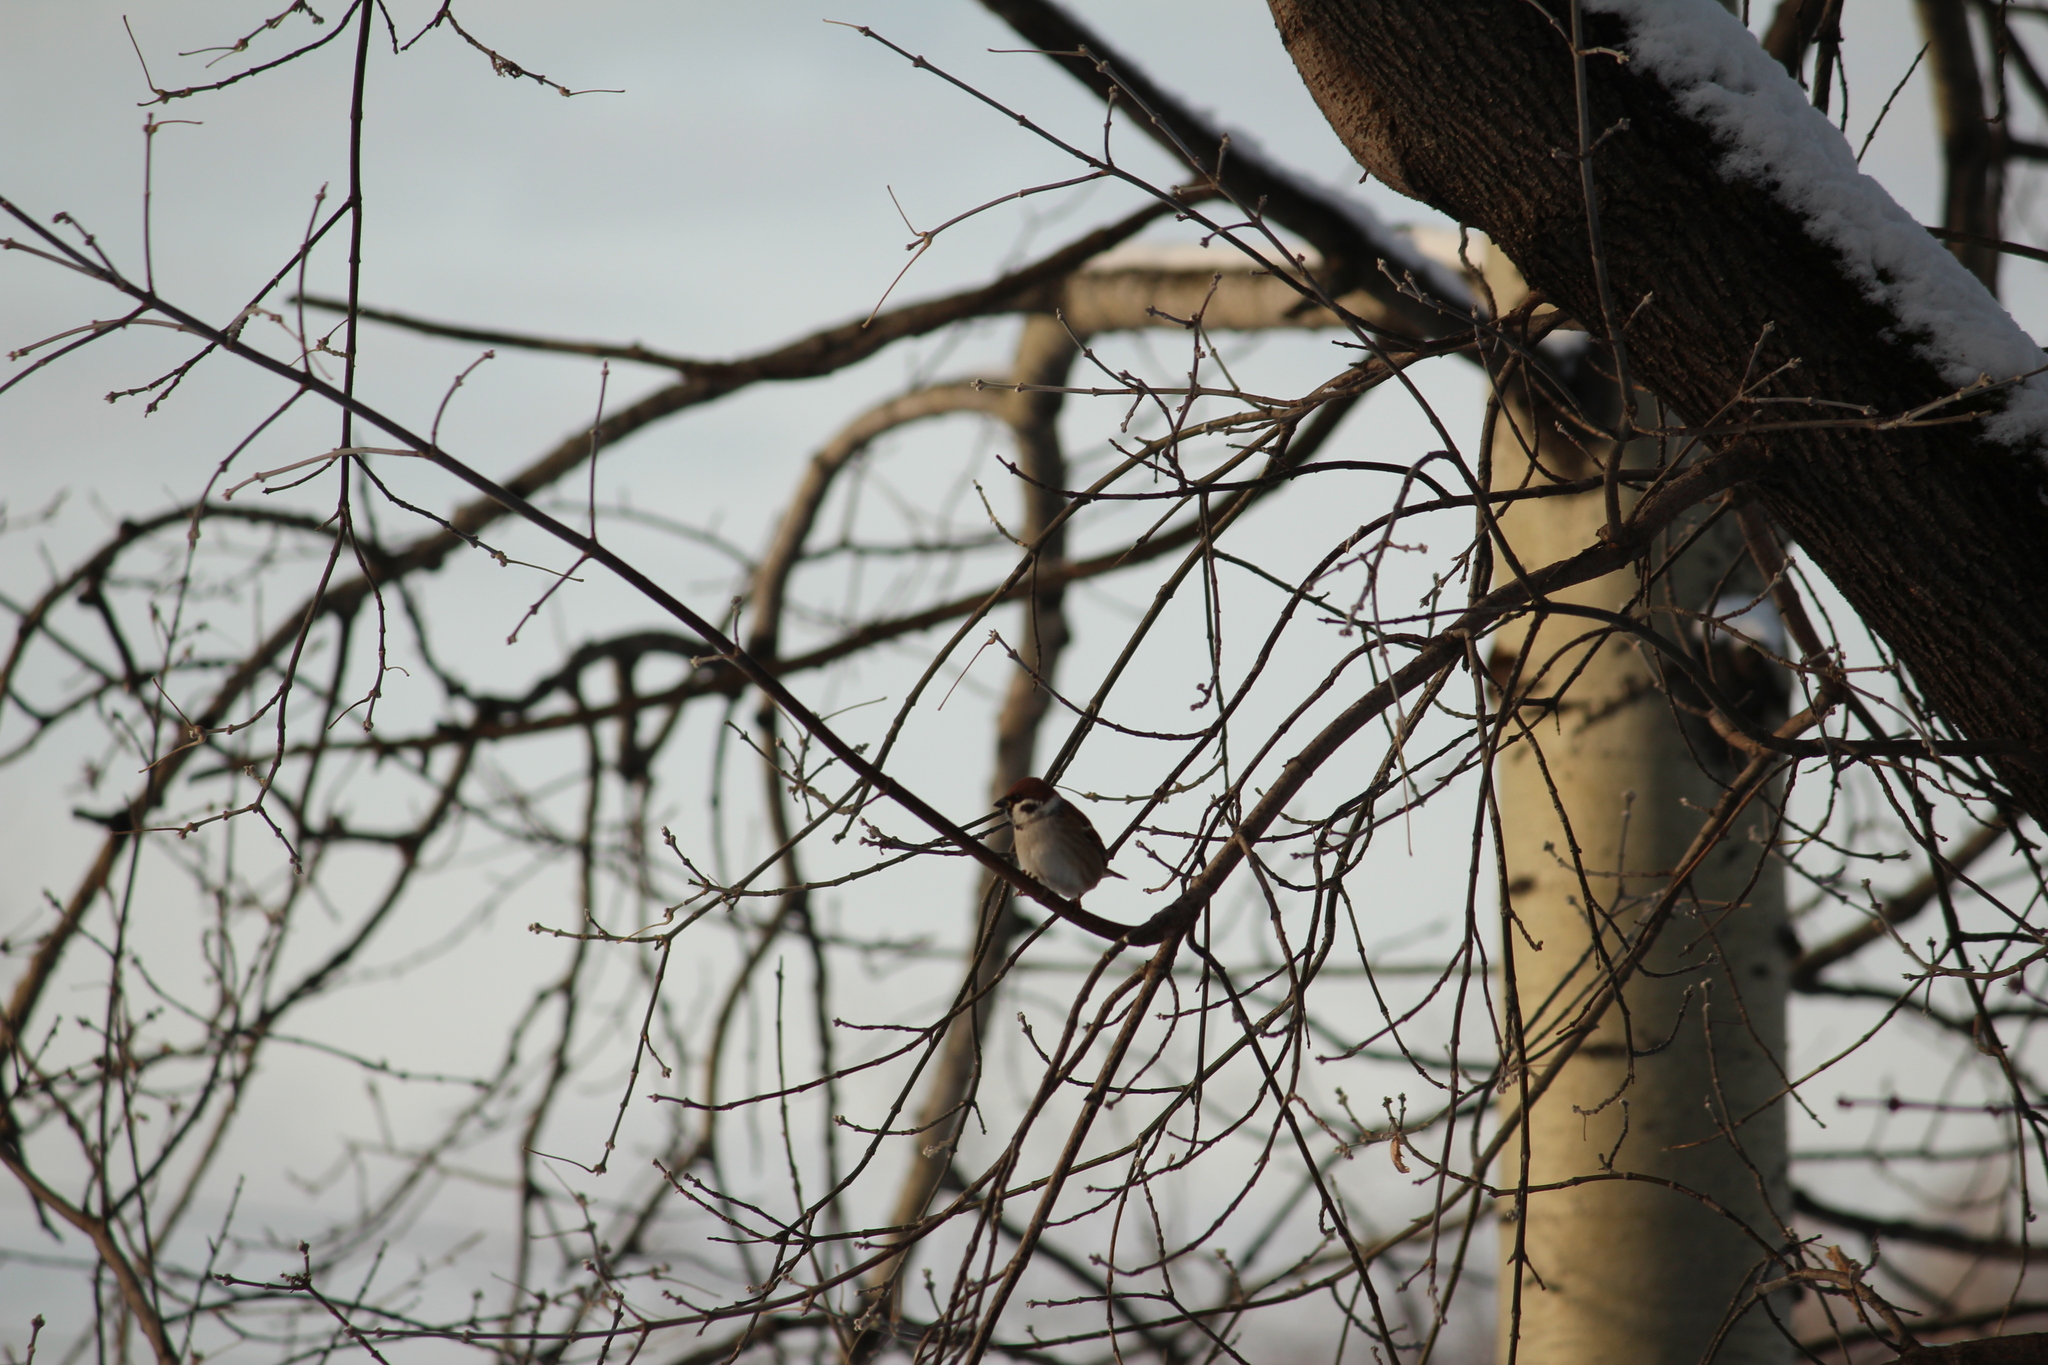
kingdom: Animalia
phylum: Chordata
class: Aves
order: Passeriformes
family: Passeridae
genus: Passer
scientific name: Passer montanus
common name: Eurasian tree sparrow
